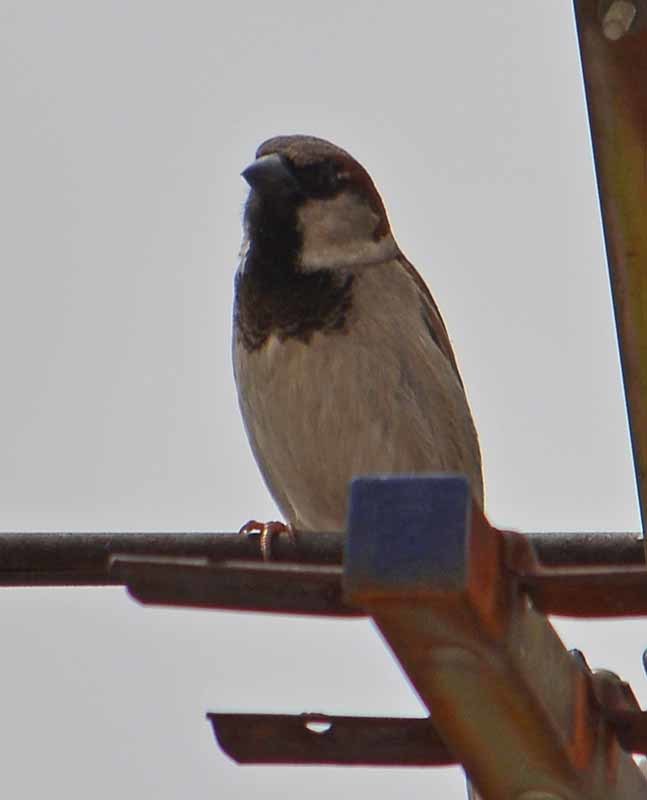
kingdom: Animalia
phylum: Chordata
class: Aves
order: Passeriformes
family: Passeridae
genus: Passer
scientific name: Passer domesticus
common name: House sparrow
